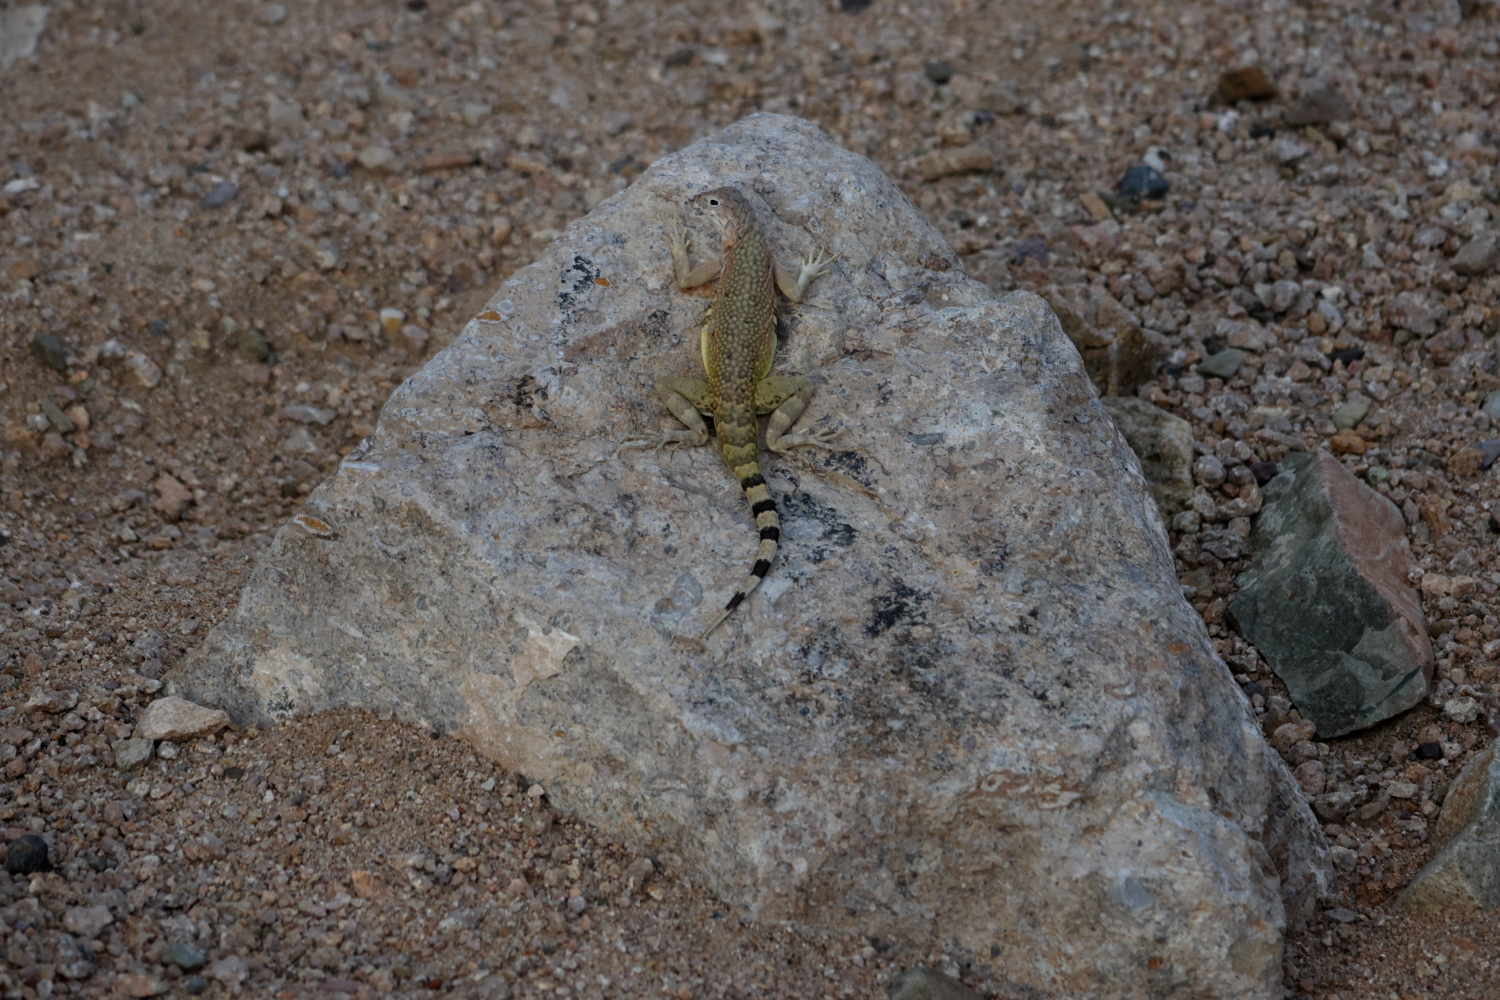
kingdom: Animalia
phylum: Chordata
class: Squamata
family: Phrynosomatidae
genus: Callisaurus
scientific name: Callisaurus draconoides
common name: Zebra-tailed lizard
